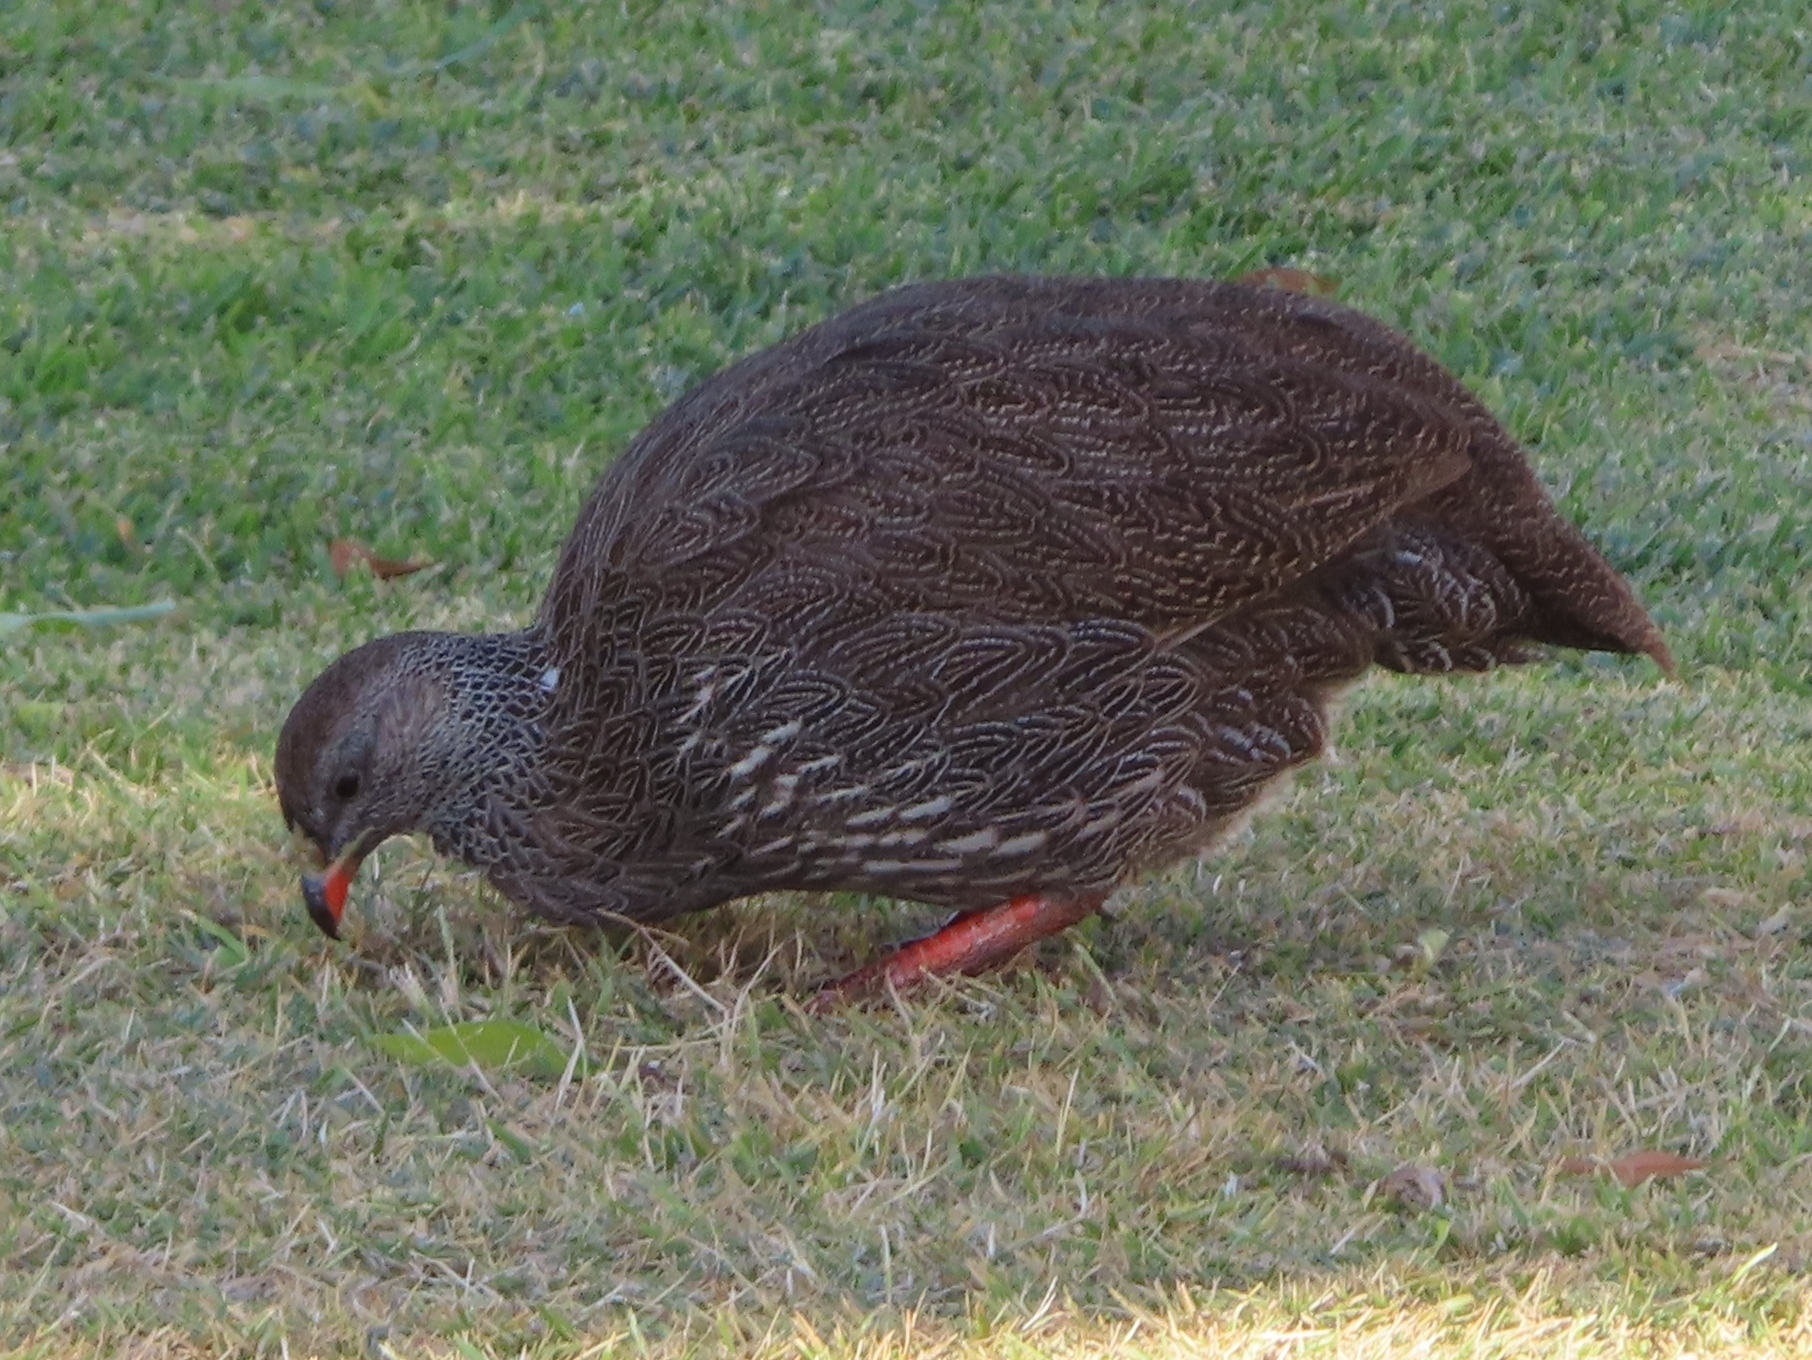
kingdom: Animalia
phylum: Chordata
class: Aves
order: Galliformes
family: Phasianidae
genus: Pternistis
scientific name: Pternistis capensis
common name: Cape spurfowl
